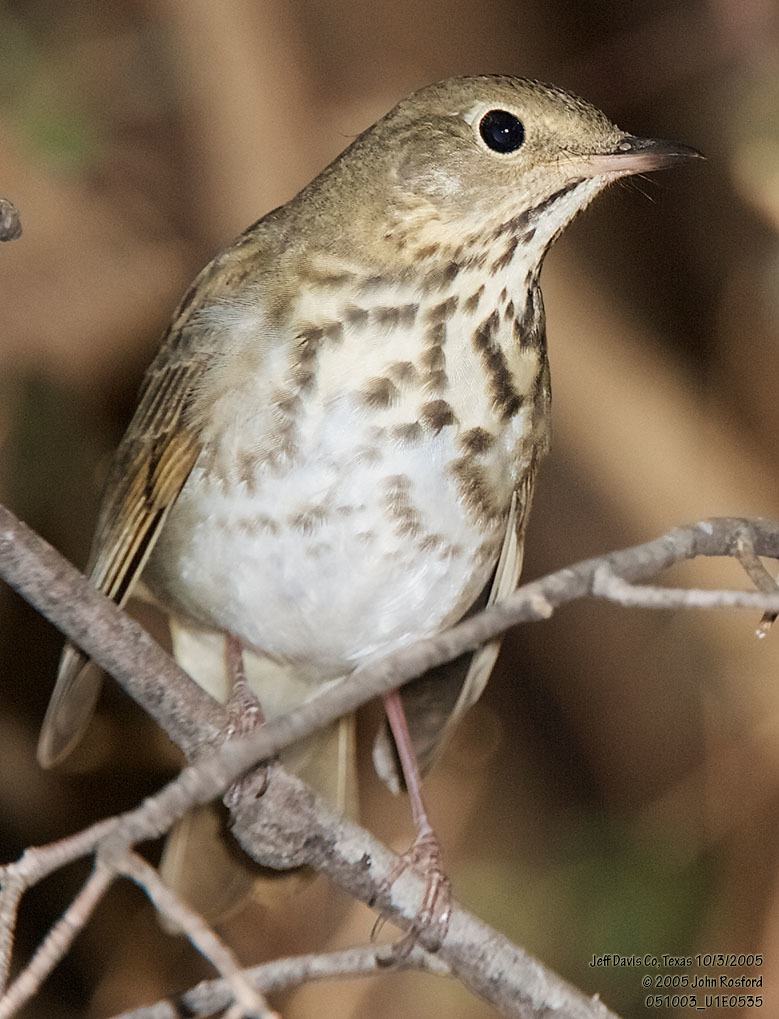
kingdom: Animalia
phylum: Chordata
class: Aves
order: Passeriformes
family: Turdidae
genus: Catharus
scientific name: Catharus guttatus
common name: Hermit thrush
